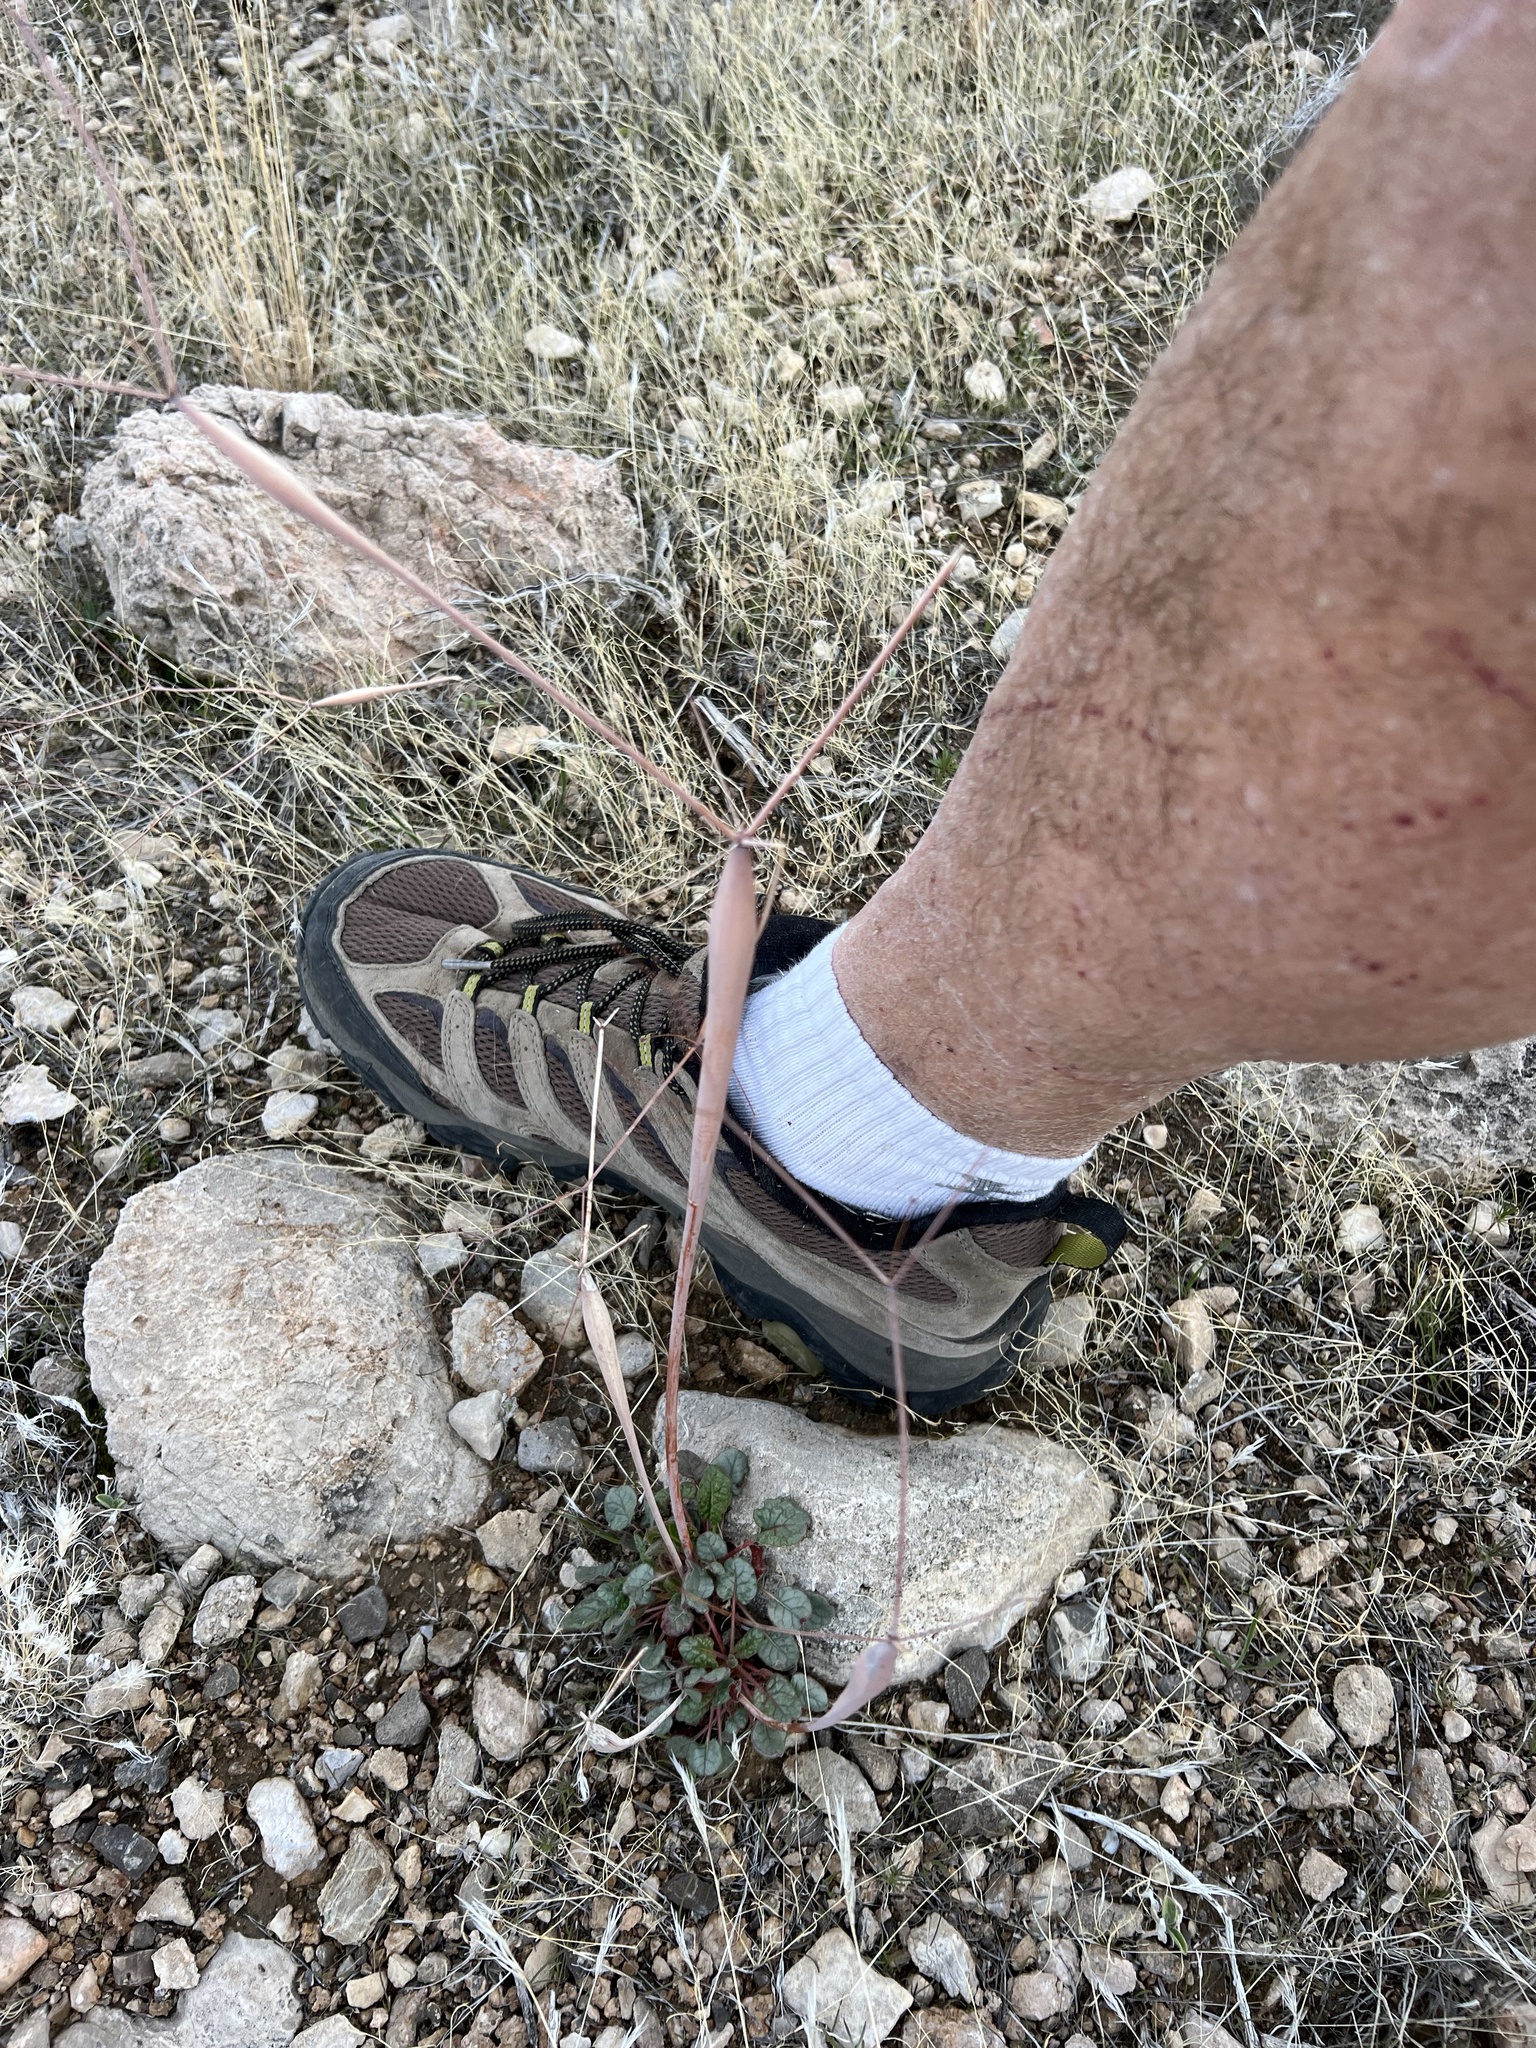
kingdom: Plantae
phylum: Tracheophyta
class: Magnoliopsida
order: Caryophyllales
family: Polygonaceae
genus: Eriogonum
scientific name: Eriogonum inflatum
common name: Desert trumpet
